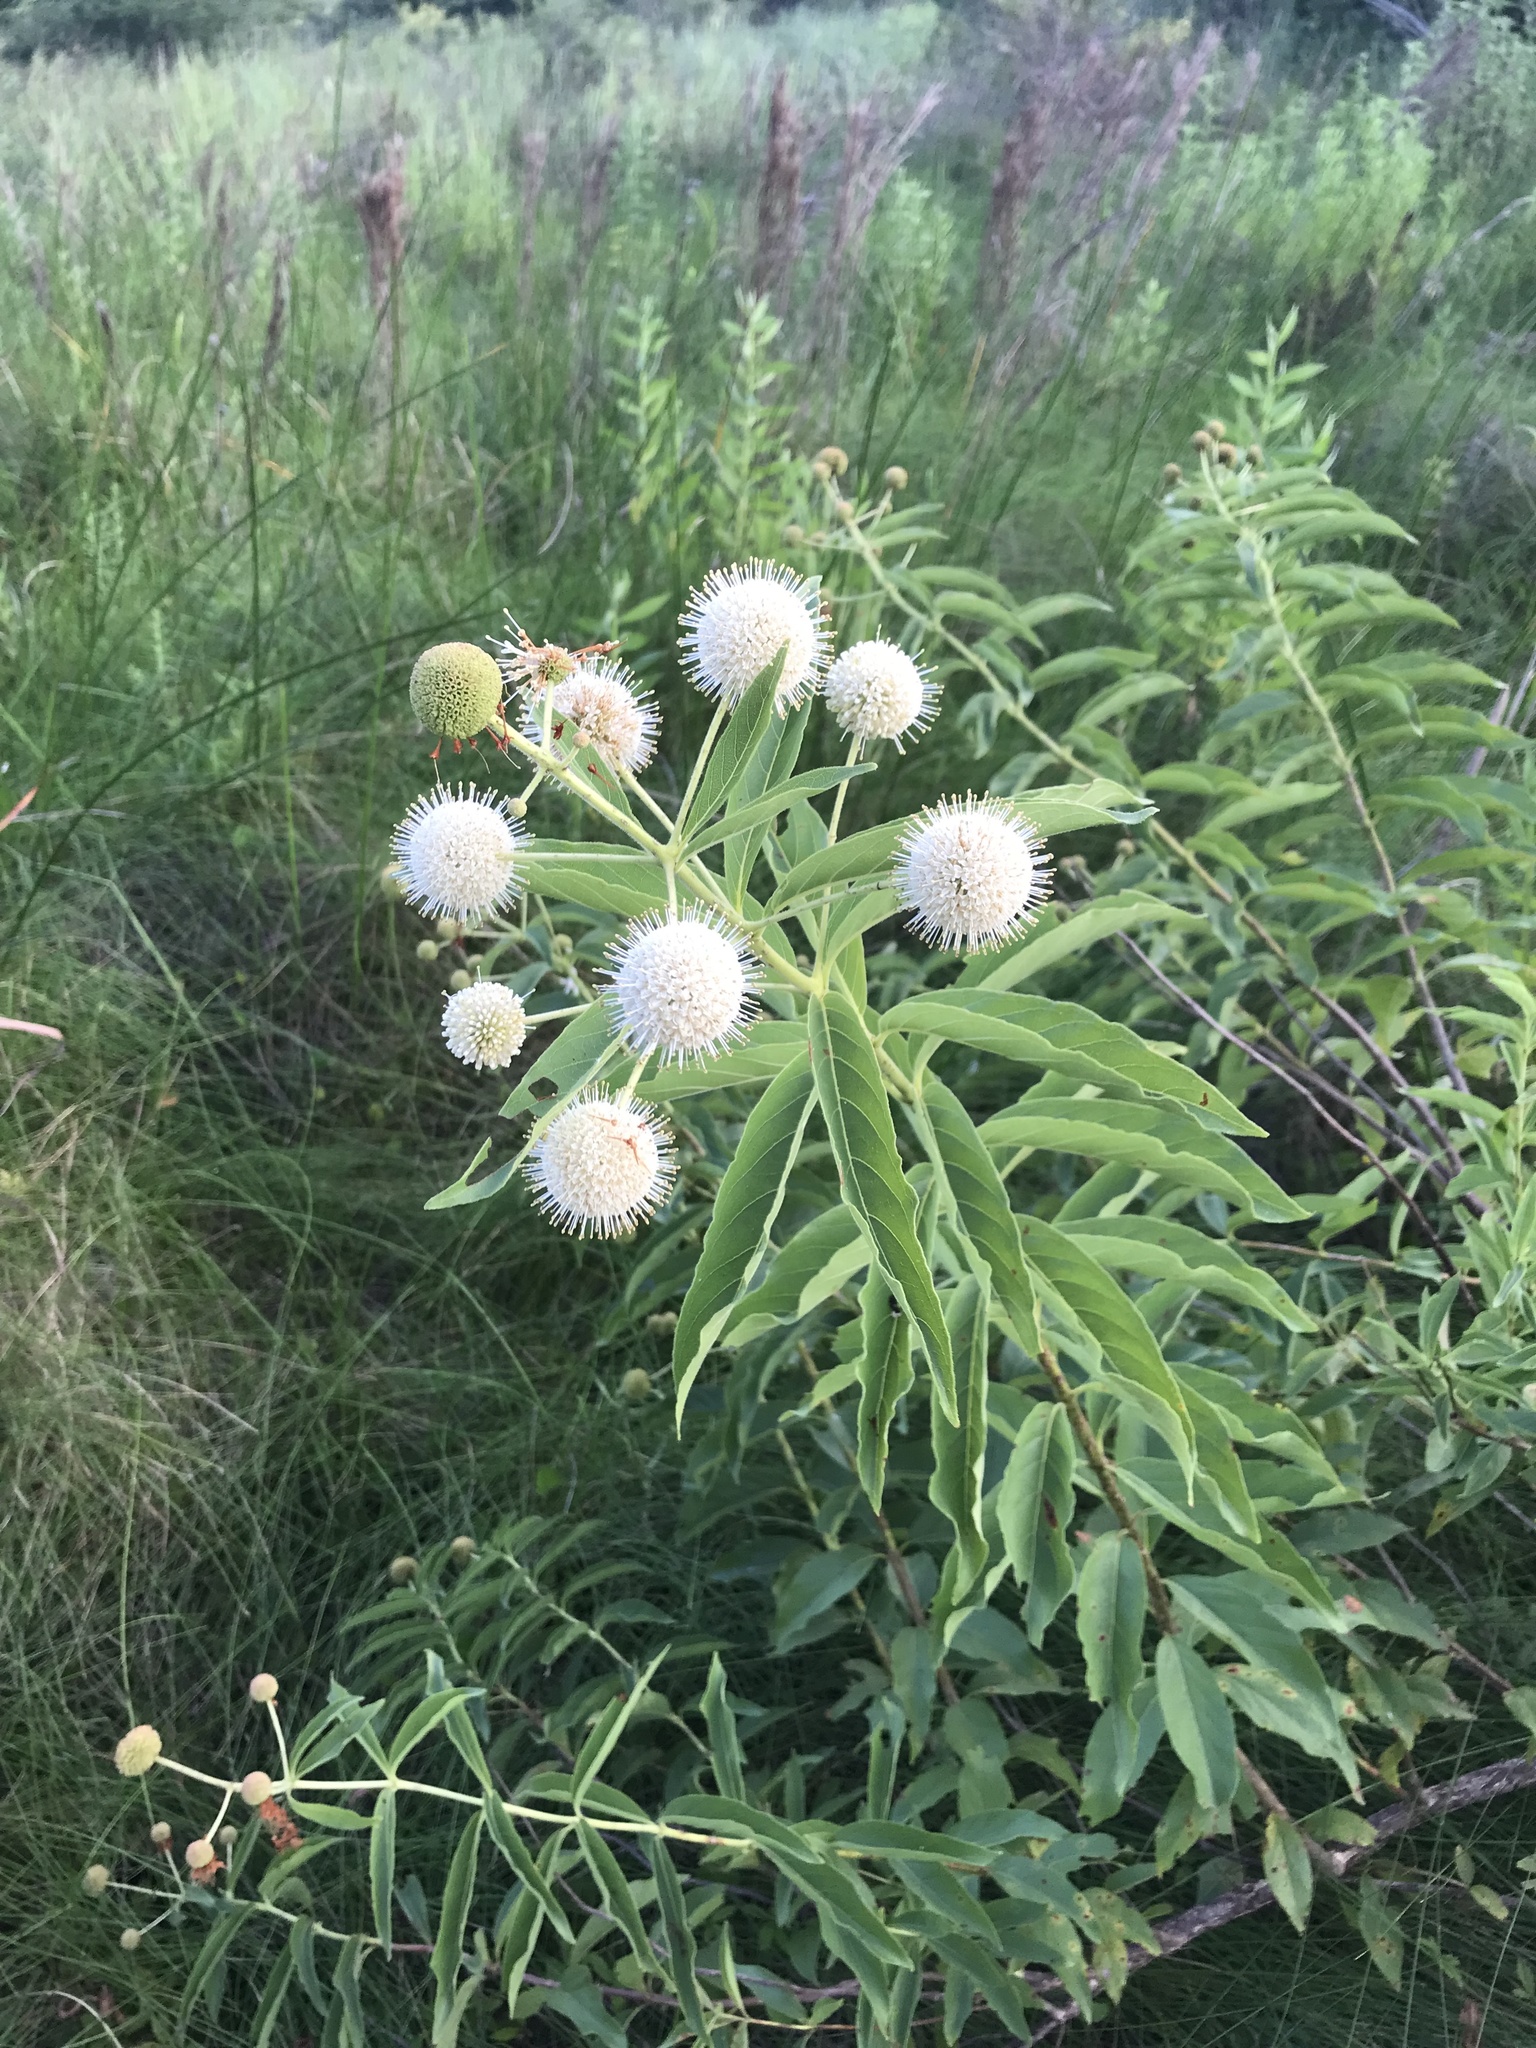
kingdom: Plantae
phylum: Tracheophyta
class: Magnoliopsida
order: Gentianales
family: Rubiaceae
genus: Cephalanthus
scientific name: Cephalanthus occidentalis
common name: Button-willow
